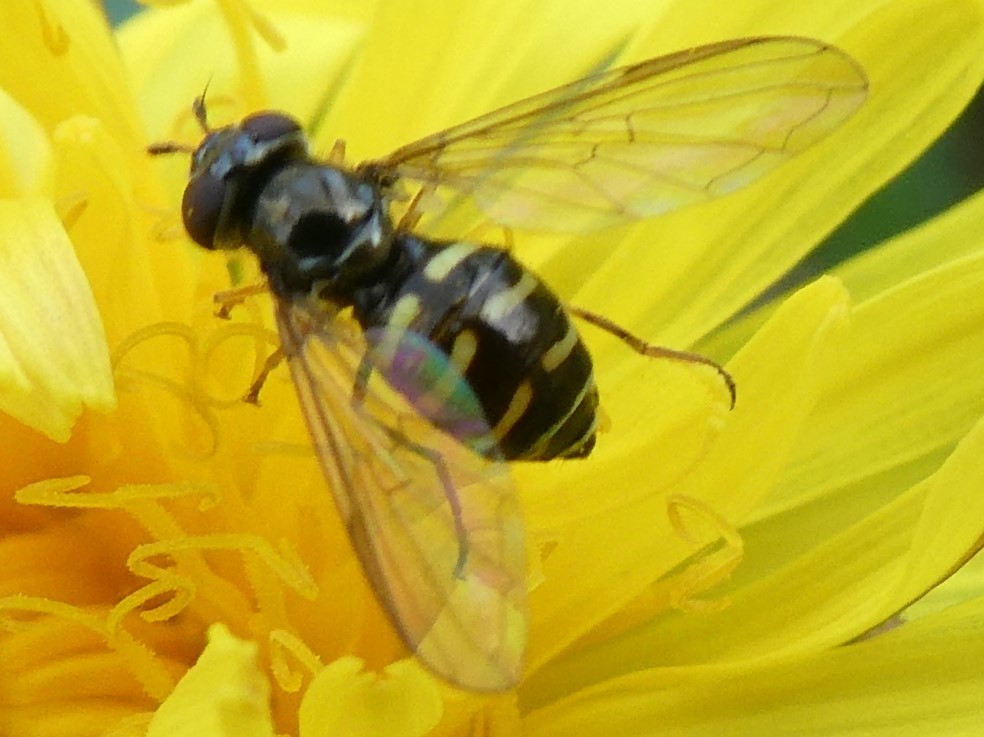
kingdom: Animalia
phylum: Arthropoda
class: Insecta
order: Diptera
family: Syrphidae
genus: Dasysyrphus
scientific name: Dasysyrphus
